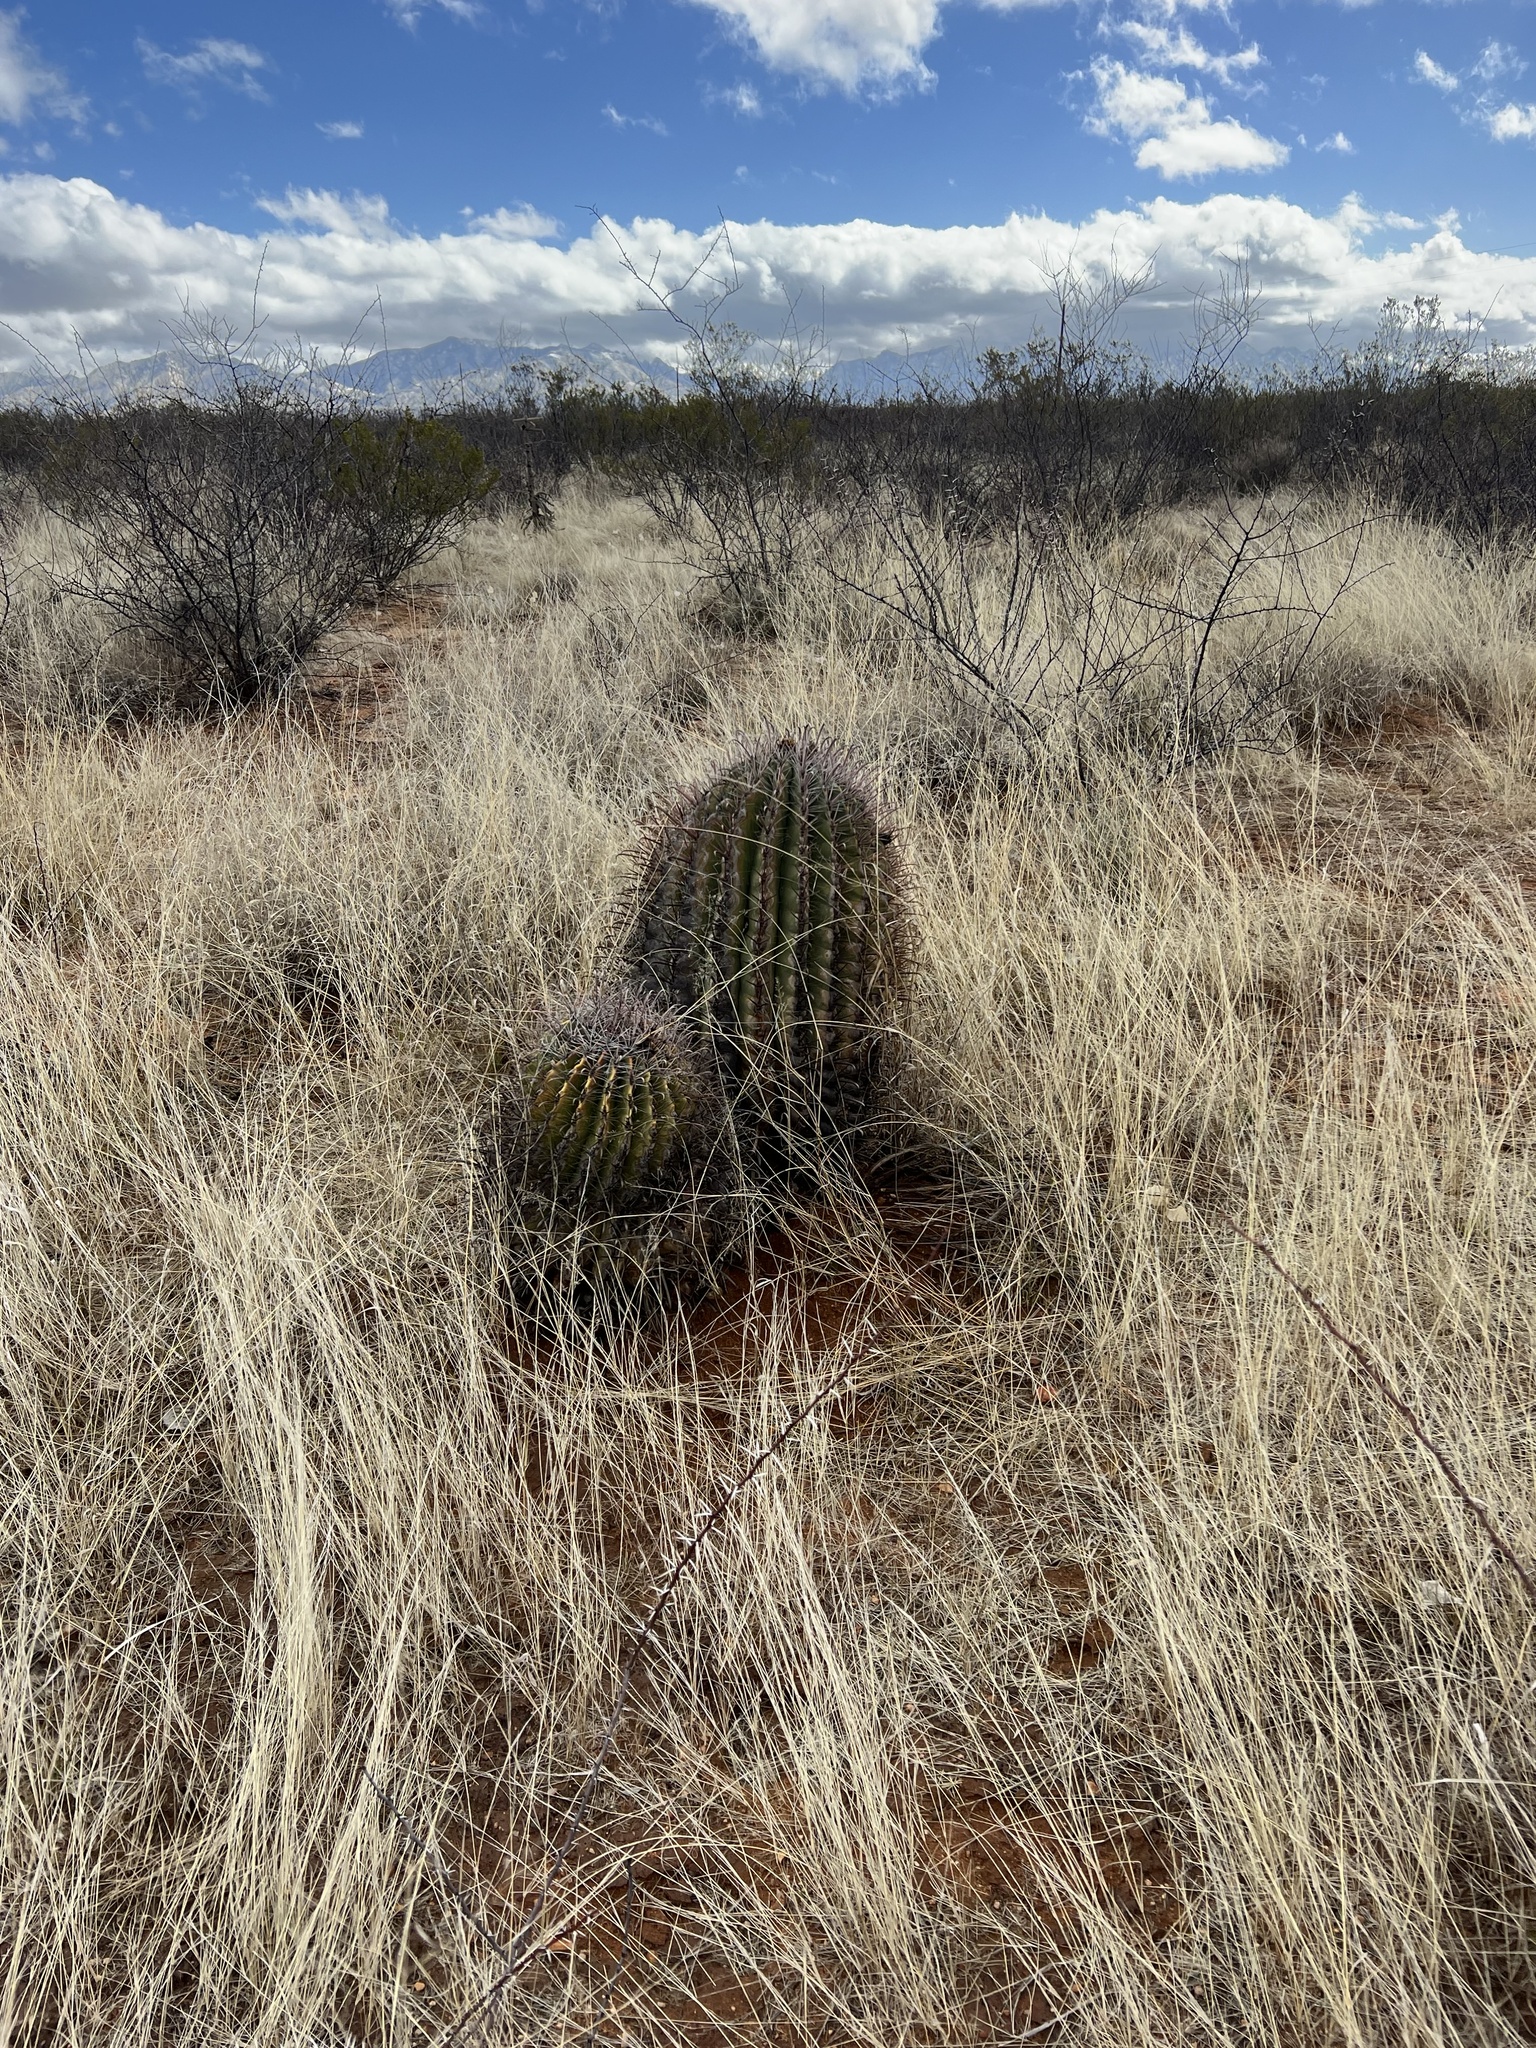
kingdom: Plantae
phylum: Tracheophyta
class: Magnoliopsida
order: Caryophyllales
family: Cactaceae
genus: Ferocactus
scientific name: Ferocactus wislizeni
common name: Candy barrel cactus
